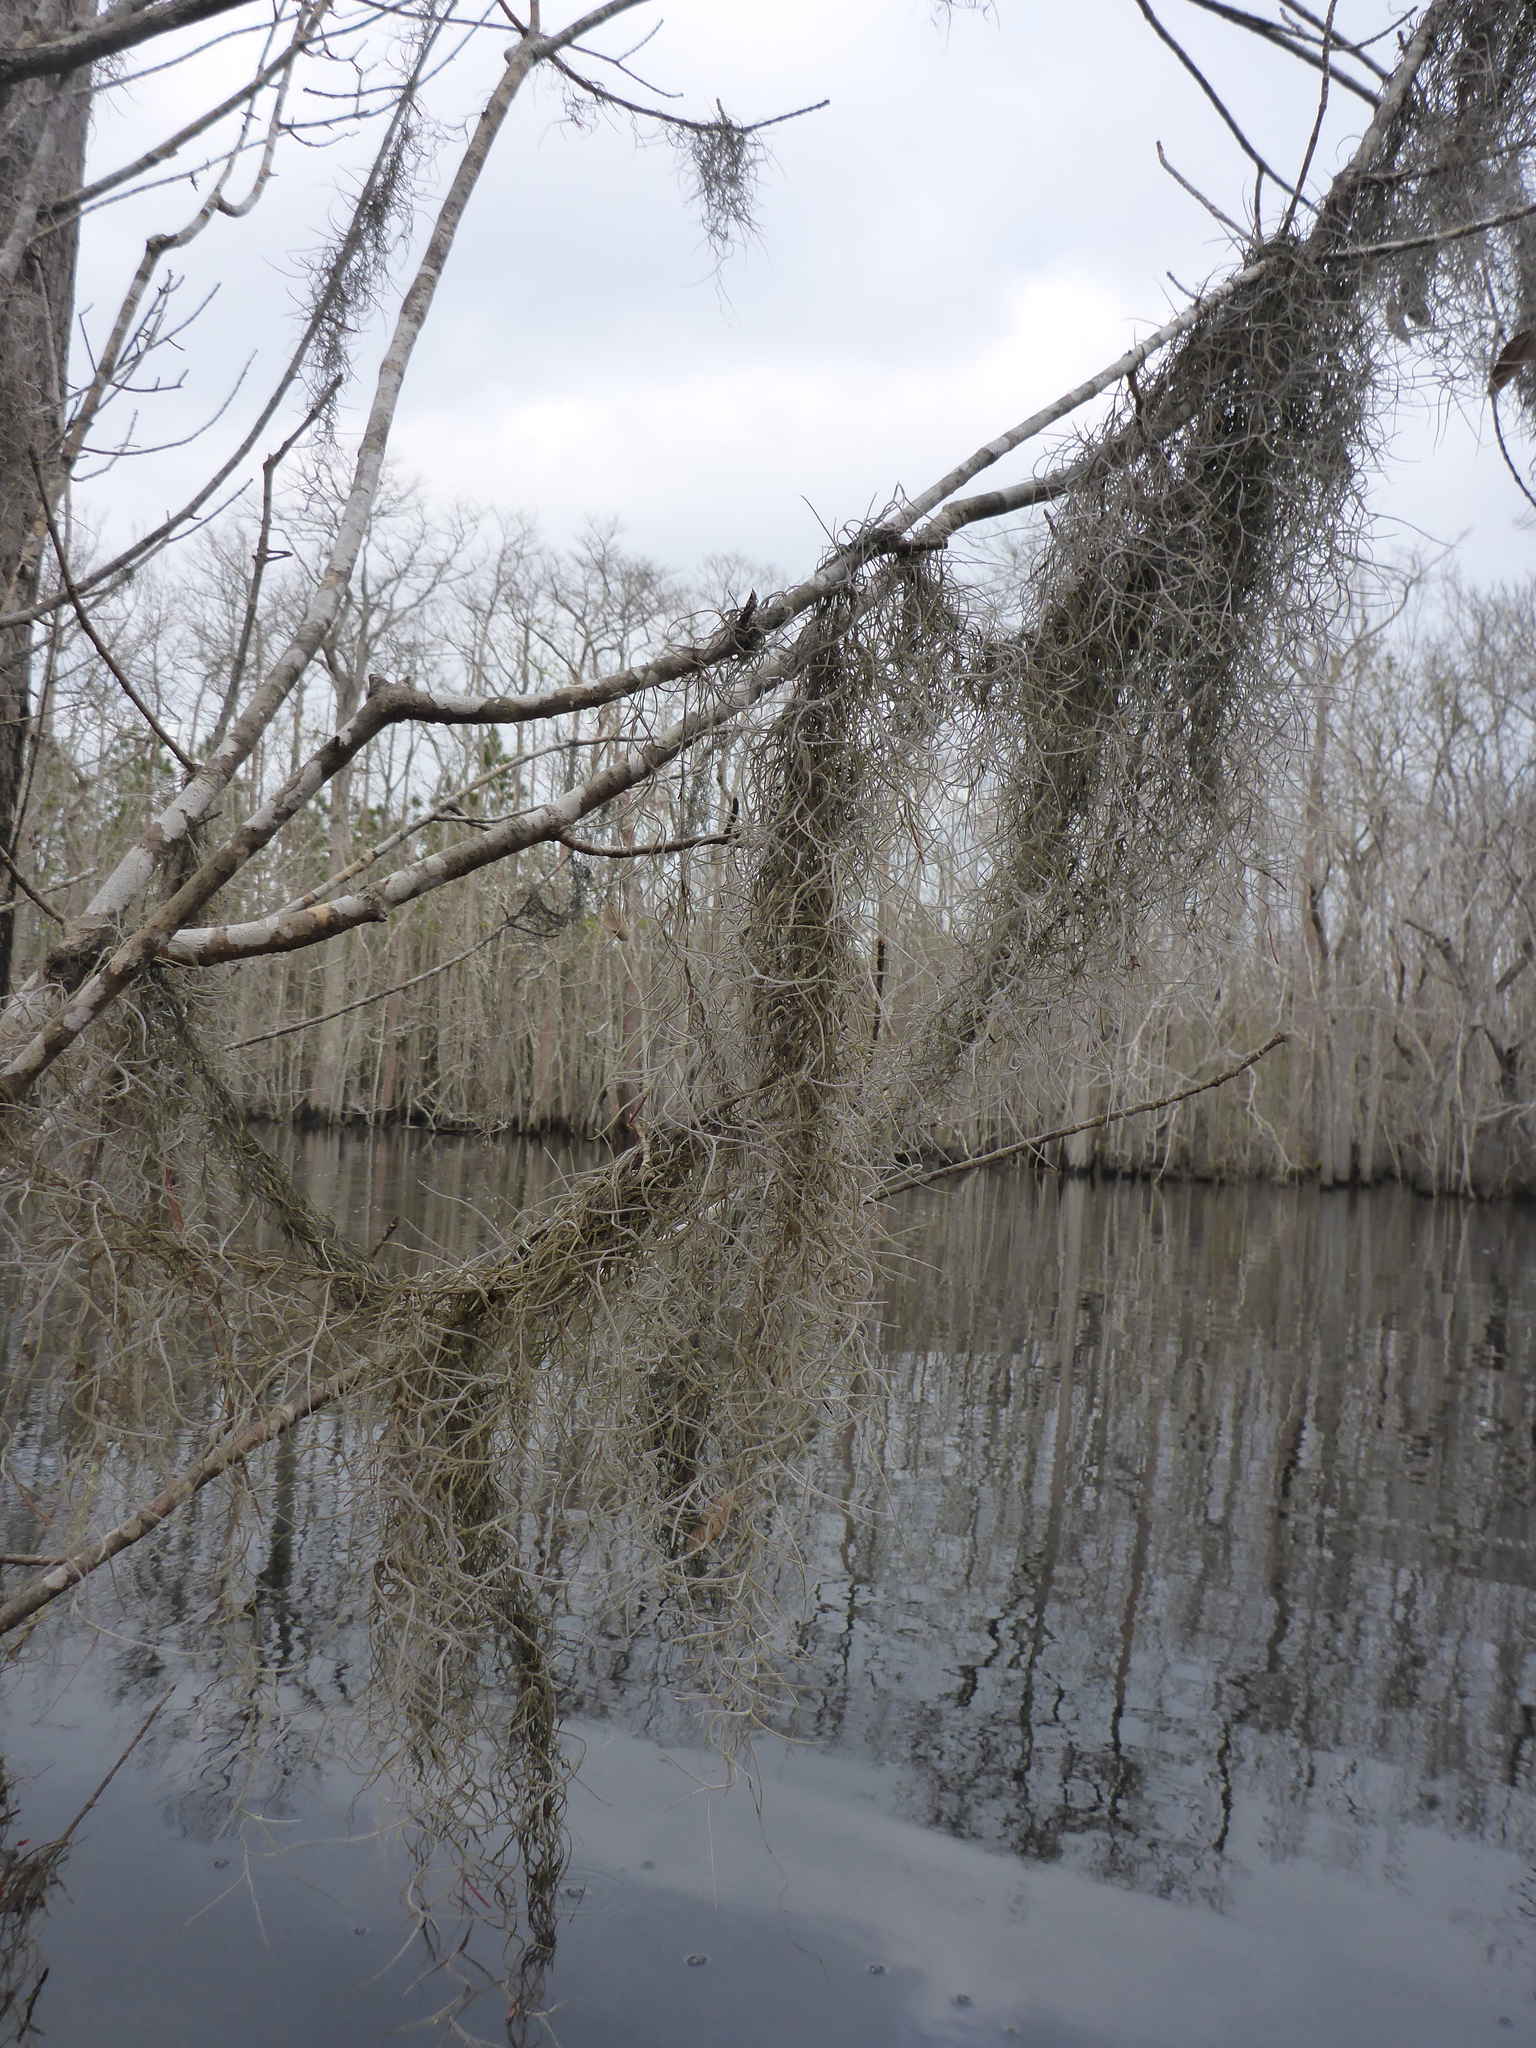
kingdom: Plantae
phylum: Tracheophyta
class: Liliopsida
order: Poales
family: Bromeliaceae
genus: Tillandsia
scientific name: Tillandsia usneoides
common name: Spanish moss
